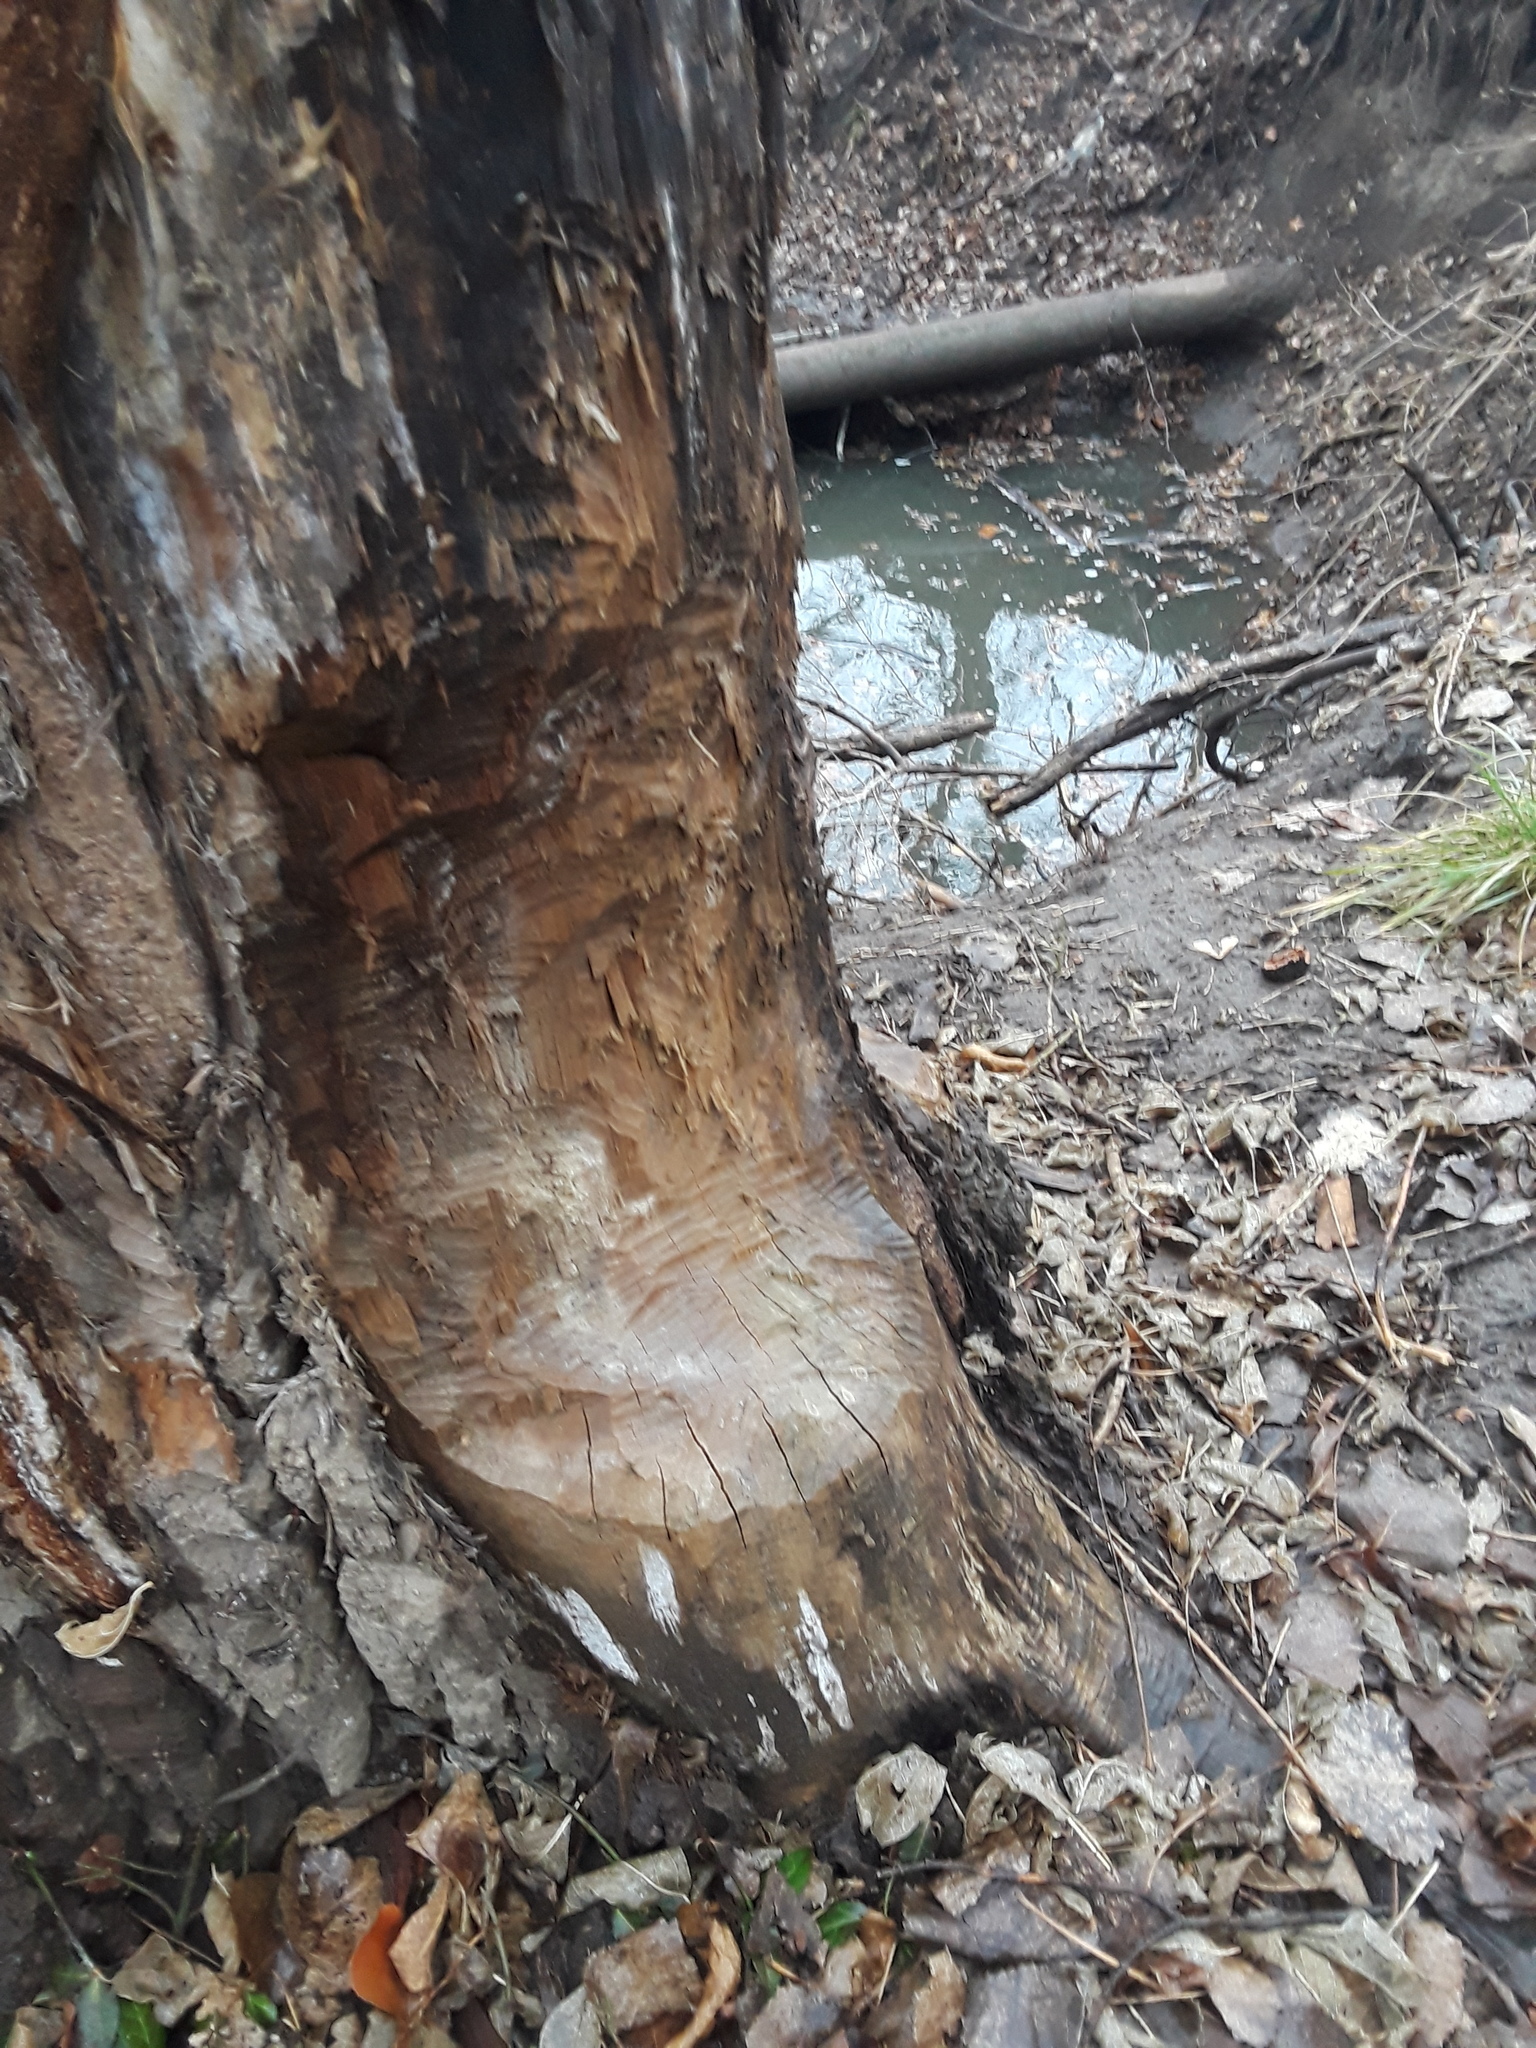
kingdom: Animalia
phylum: Chordata
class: Mammalia
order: Rodentia
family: Castoridae
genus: Castor
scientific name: Castor canadensis
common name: American beaver
